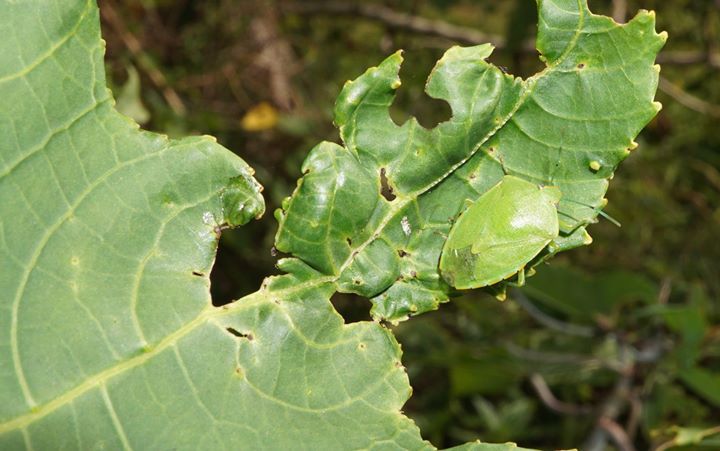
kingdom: Animalia
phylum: Arthropoda
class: Insecta
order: Hemiptera
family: Pentatomidae
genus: Acrosternum
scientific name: Acrosternum marginatum
